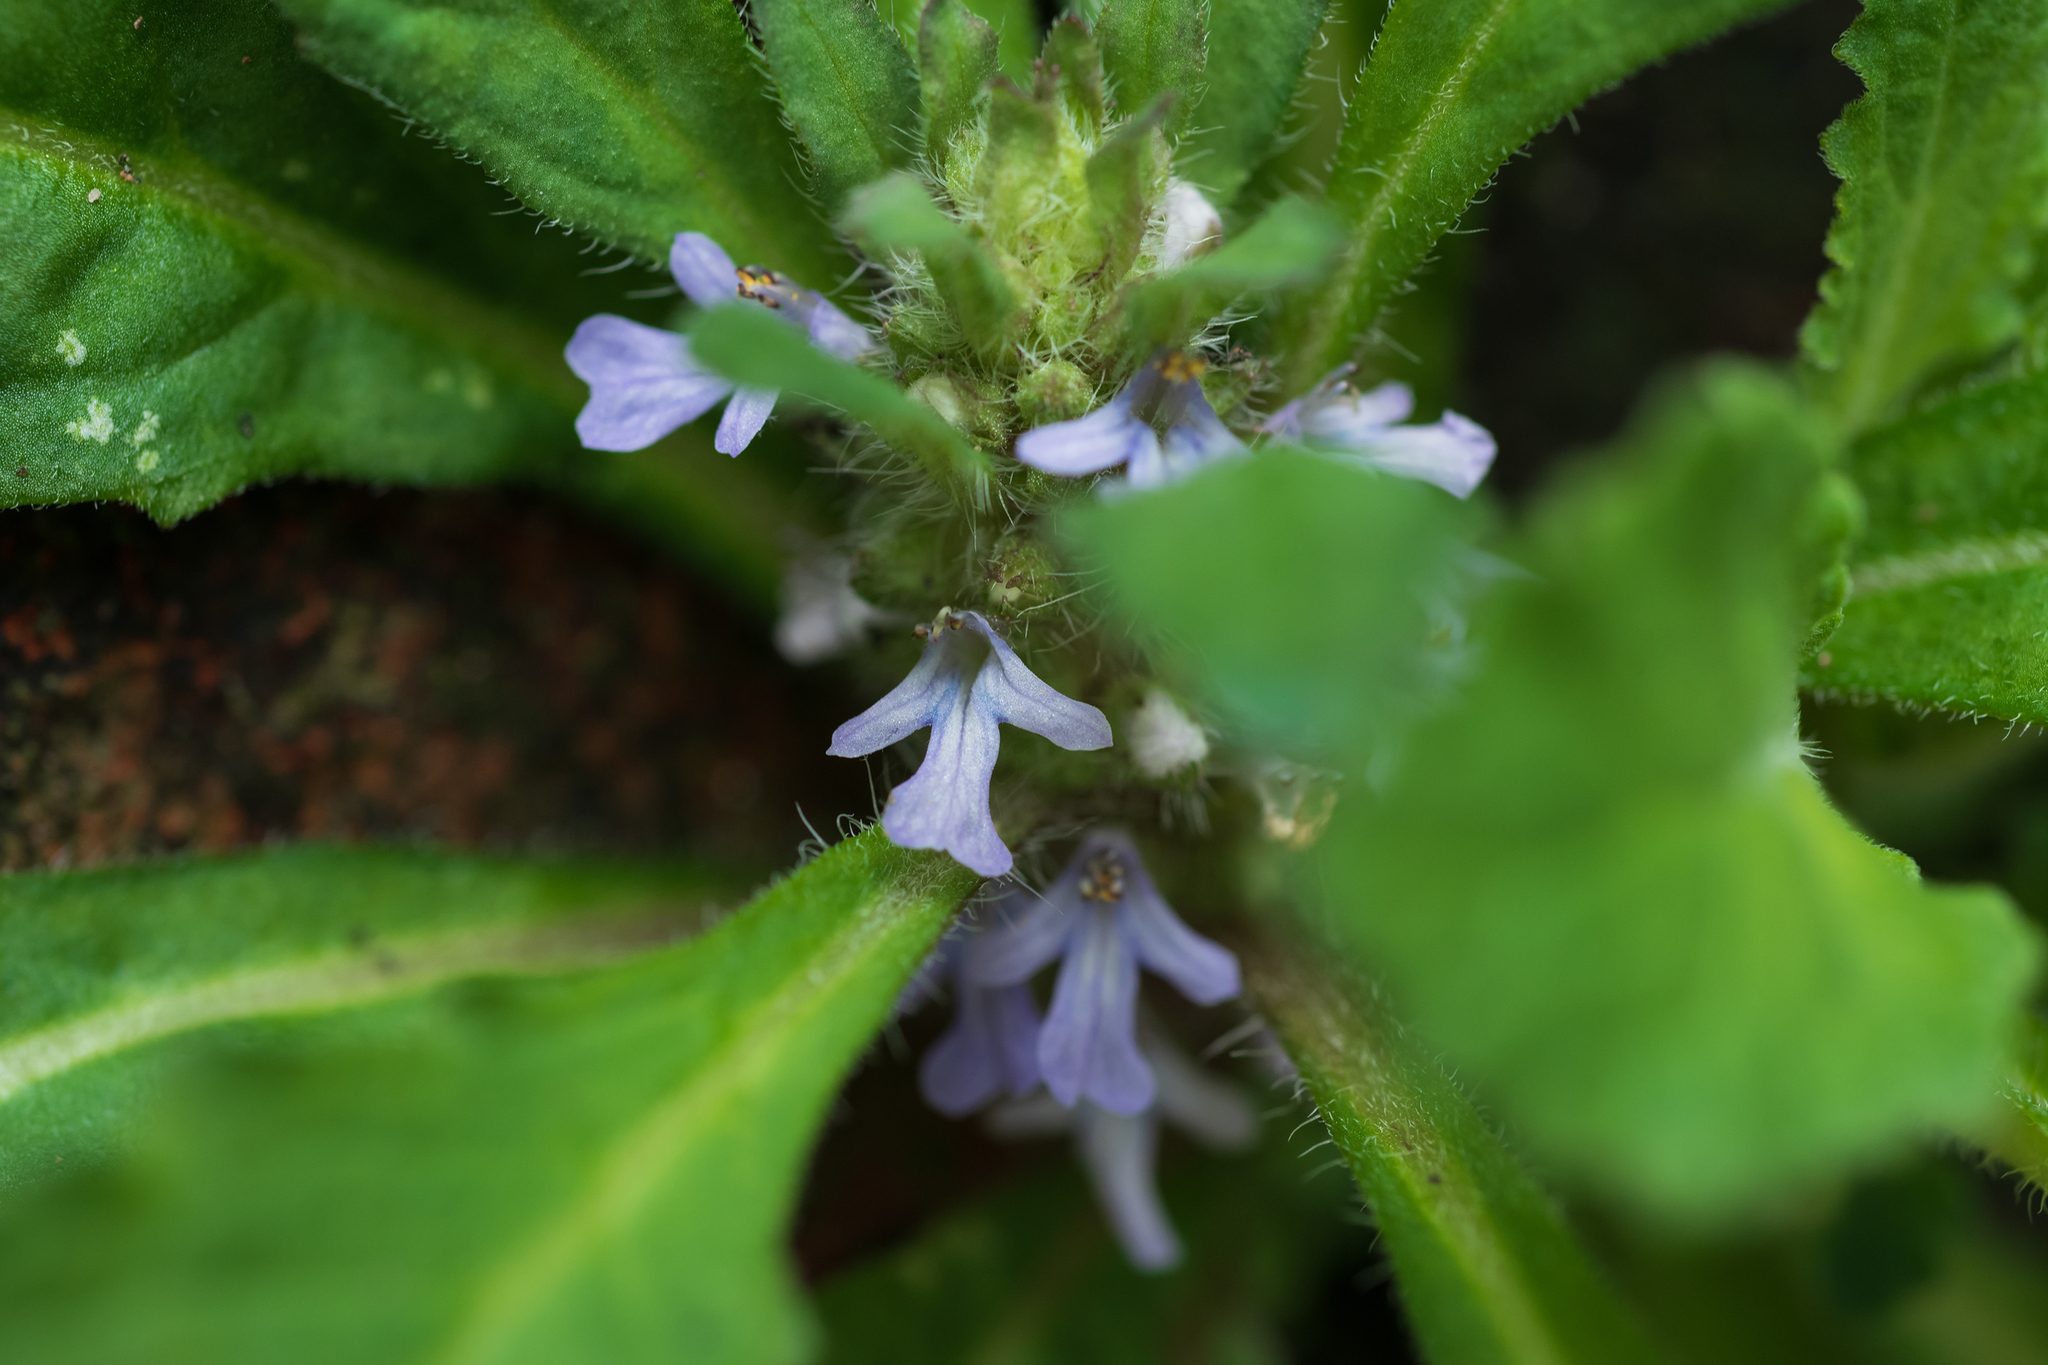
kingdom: Plantae
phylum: Tracheophyta
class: Magnoliopsida
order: Lamiales
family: Lamiaceae
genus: Ajuga
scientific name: Ajuga taiwanensis
